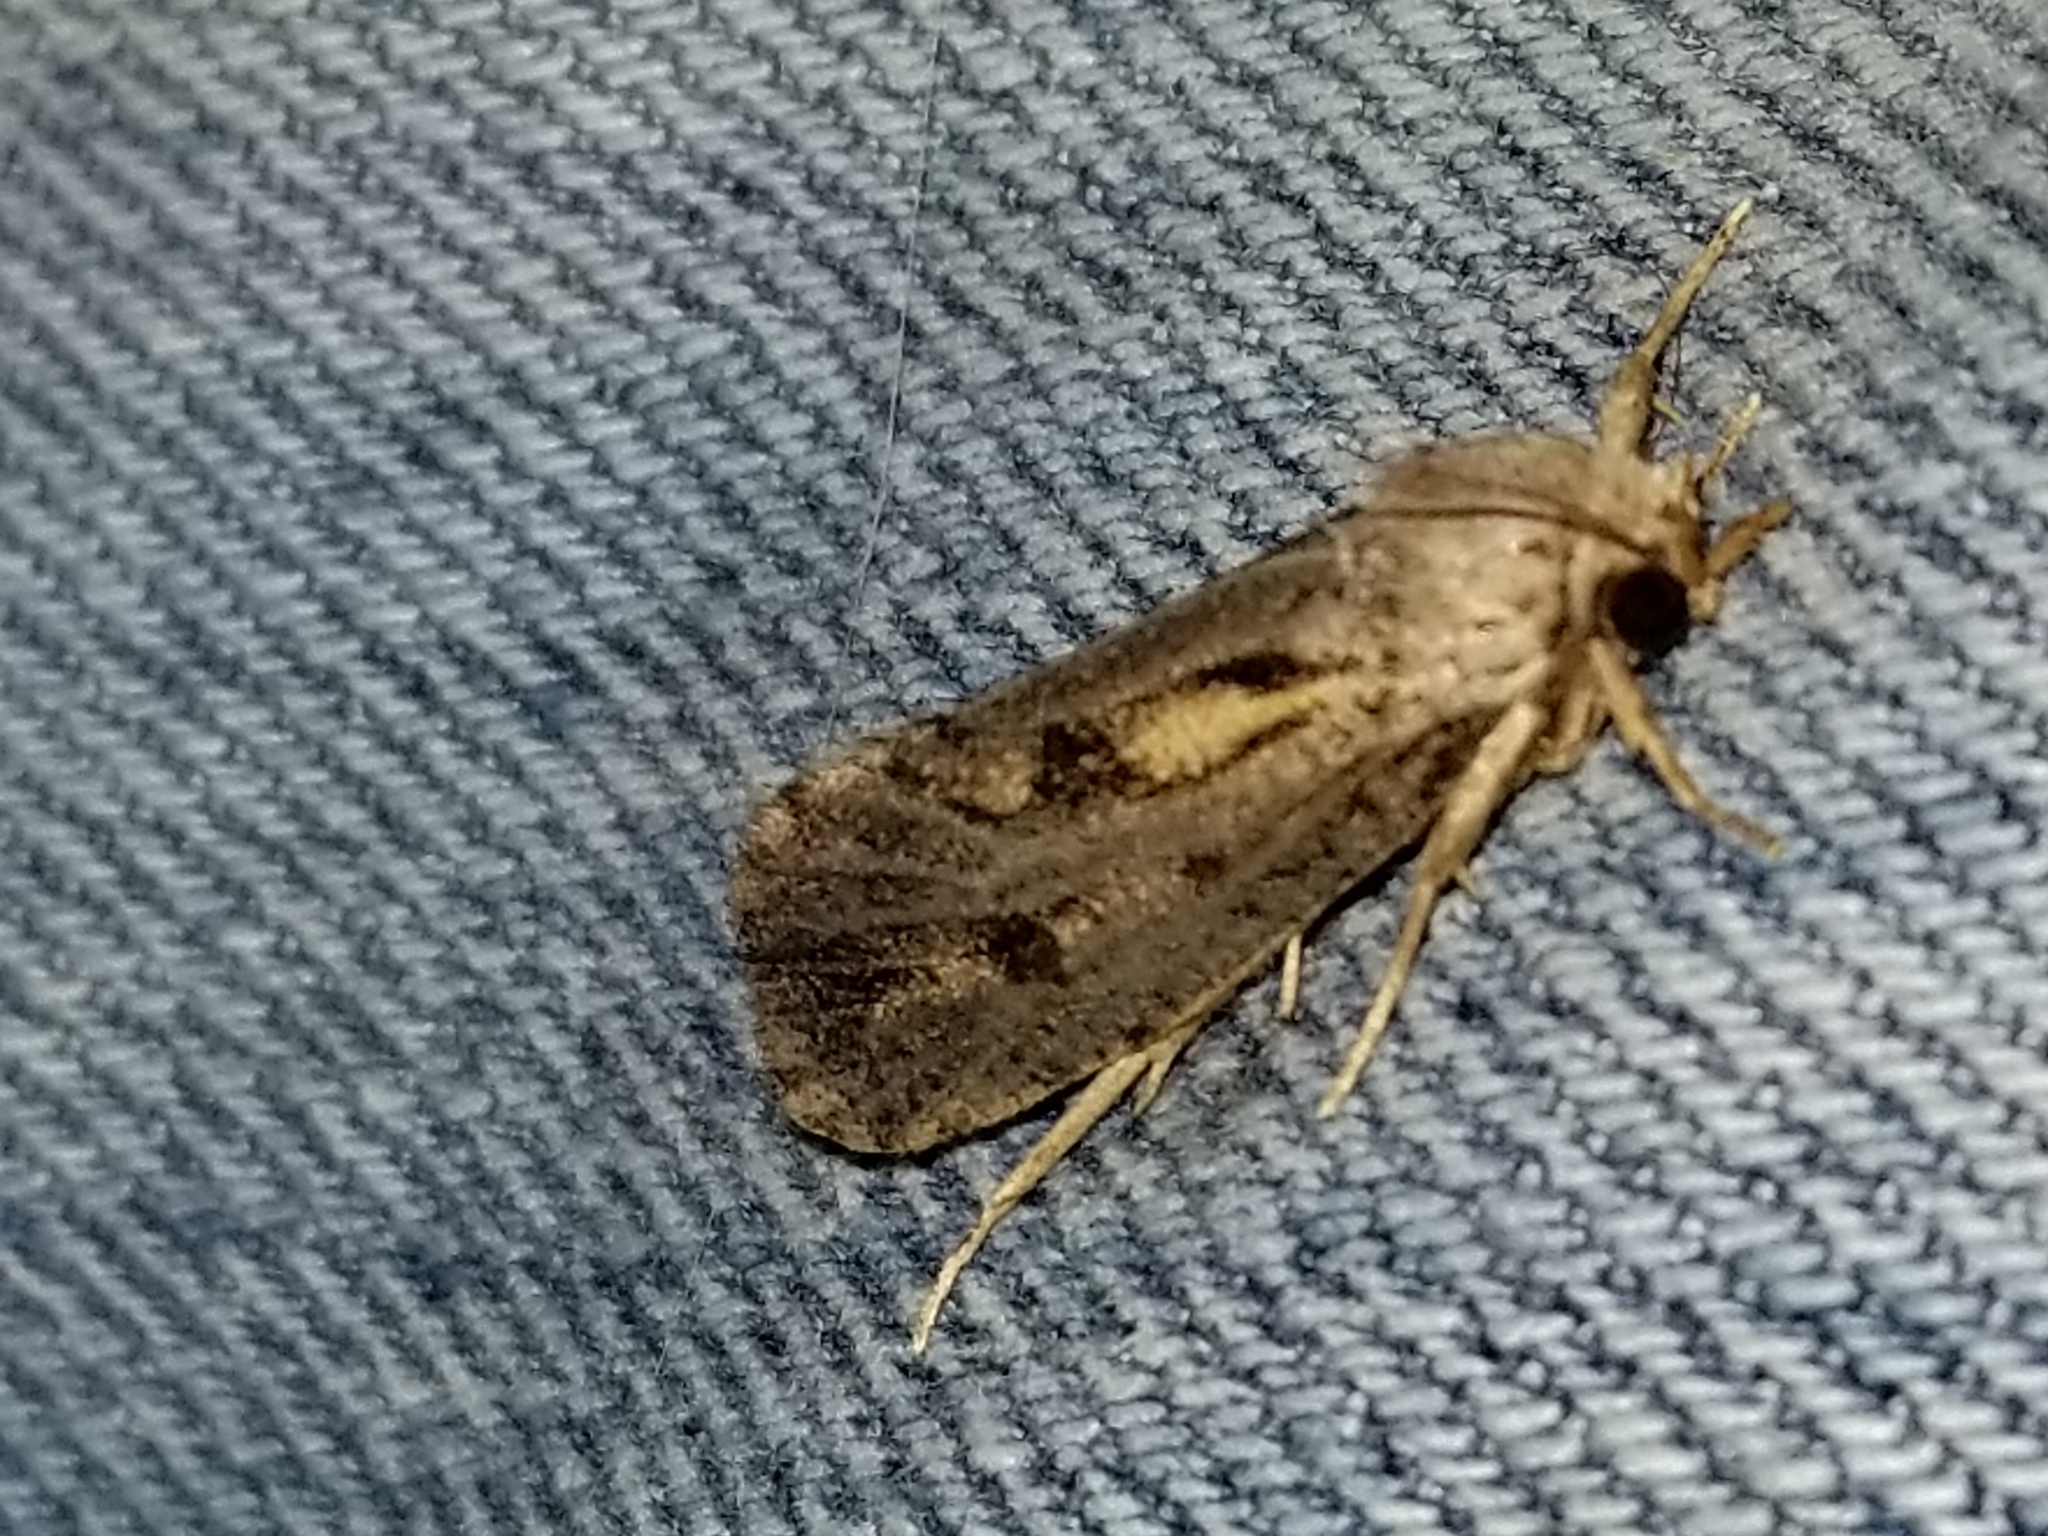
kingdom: Animalia
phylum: Arthropoda
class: Insecta
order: Lepidoptera
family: Tineidae
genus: Acrolophus
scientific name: Acrolophus popeanella
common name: Clemens' grass tubeworm moth
